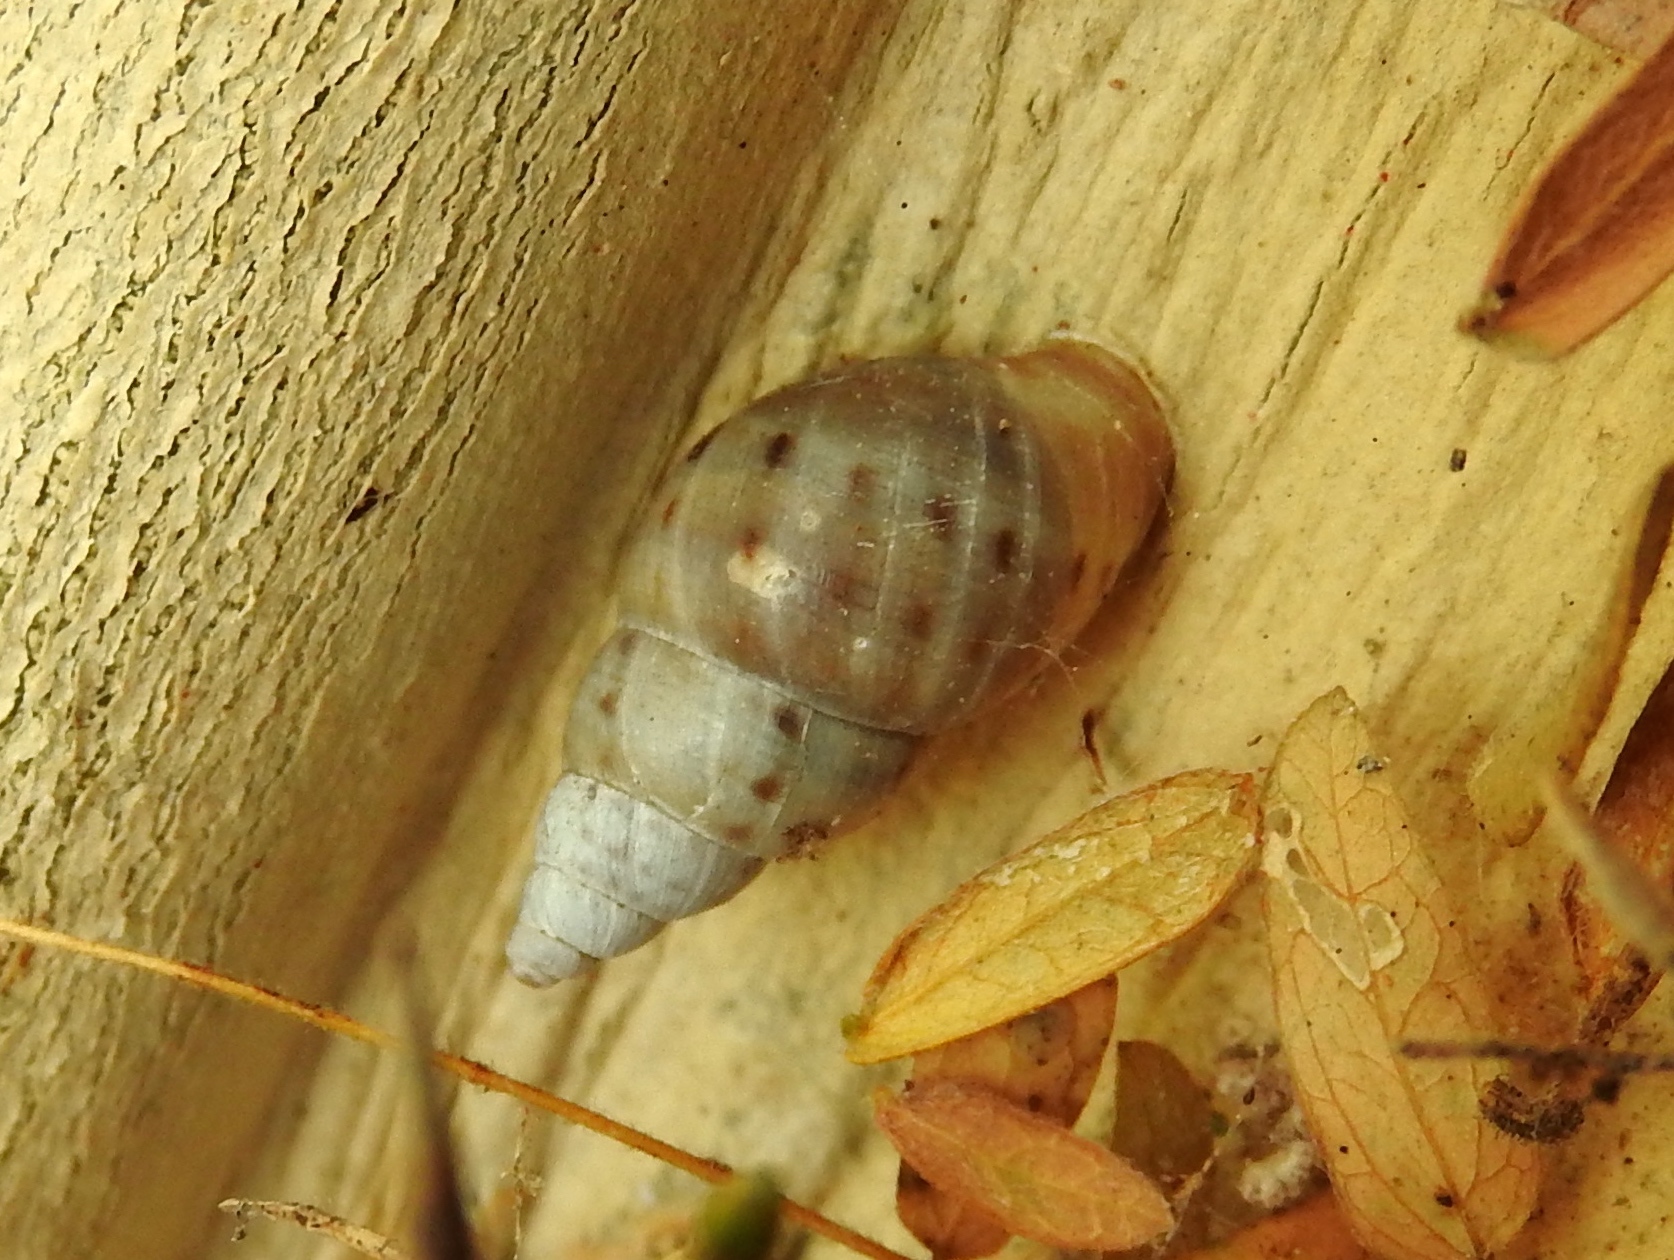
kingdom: Animalia
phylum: Mollusca
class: Gastropoda
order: Stylommatophora
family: Bulimulidae
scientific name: Bulimulidae
